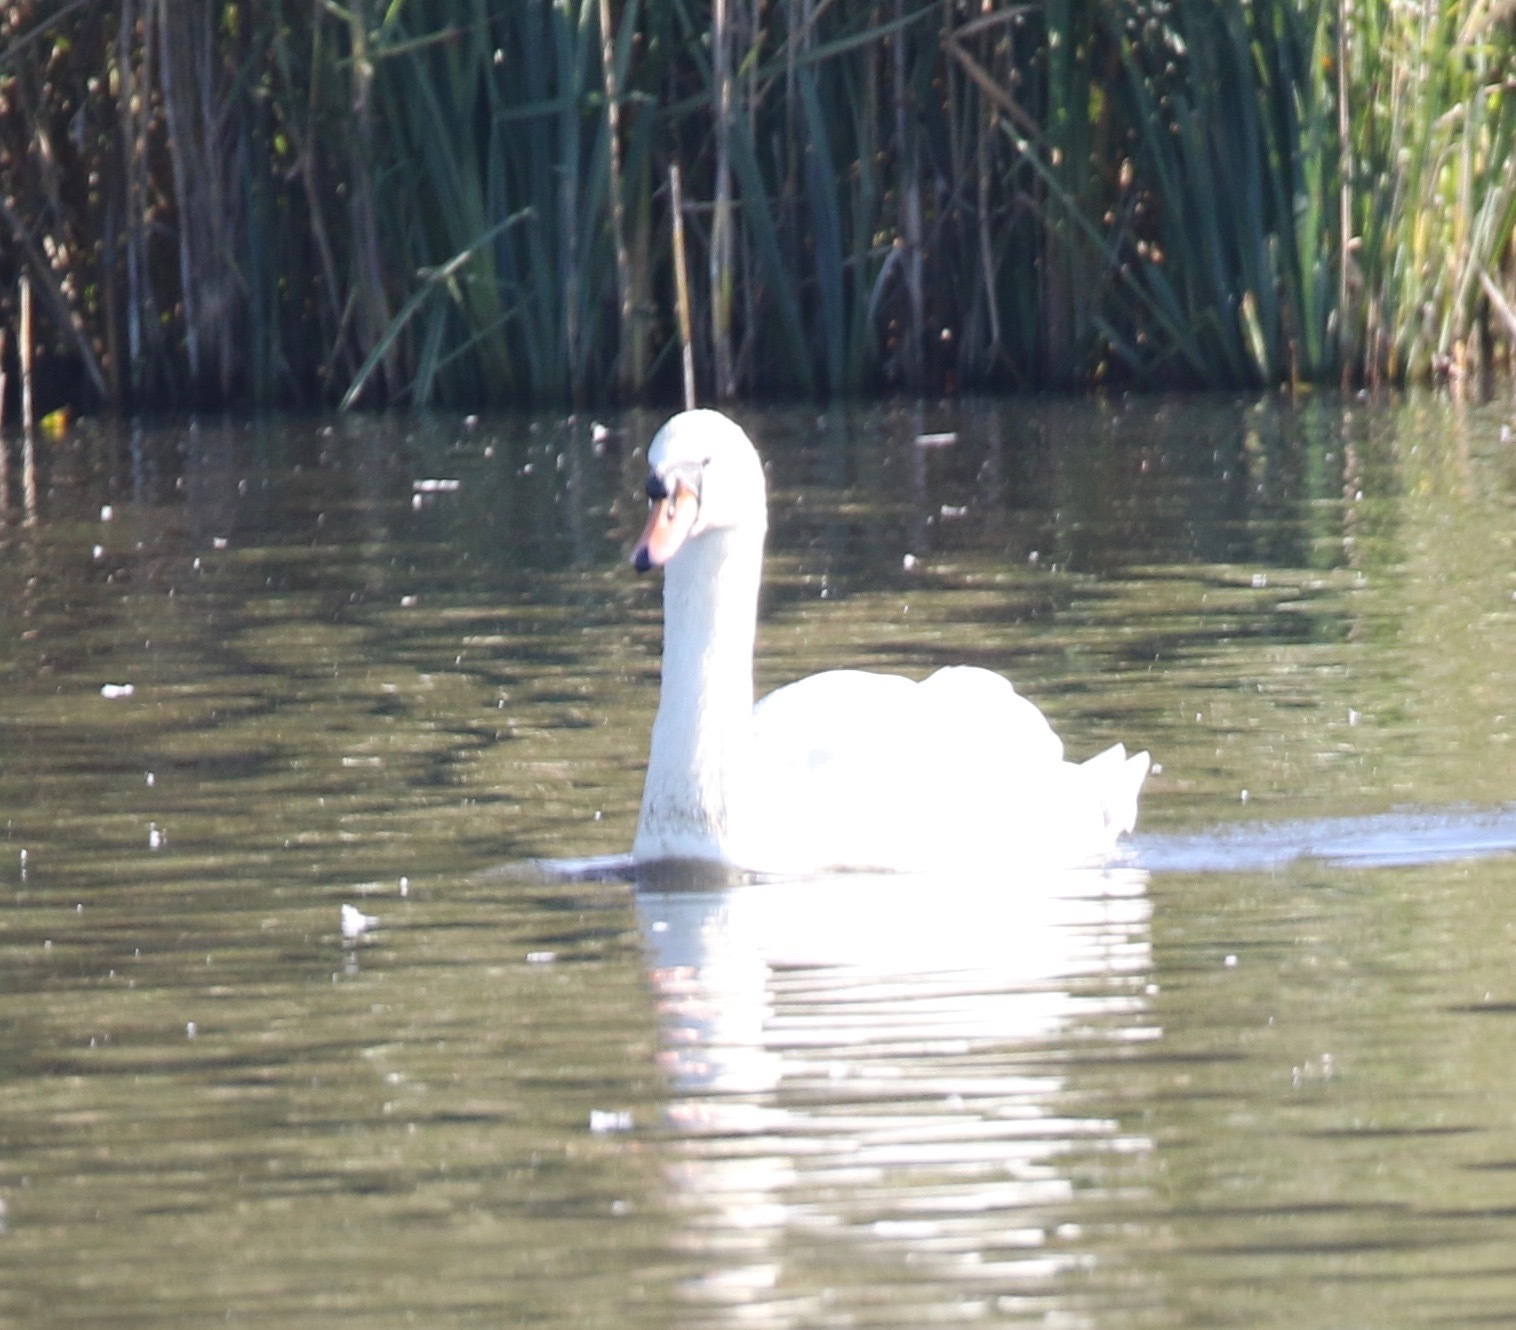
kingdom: Animalia
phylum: Chordata
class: Aves
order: Anseriformes
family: Anatidae
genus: Cygnus
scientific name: Cygnus olor
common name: Mute swan
